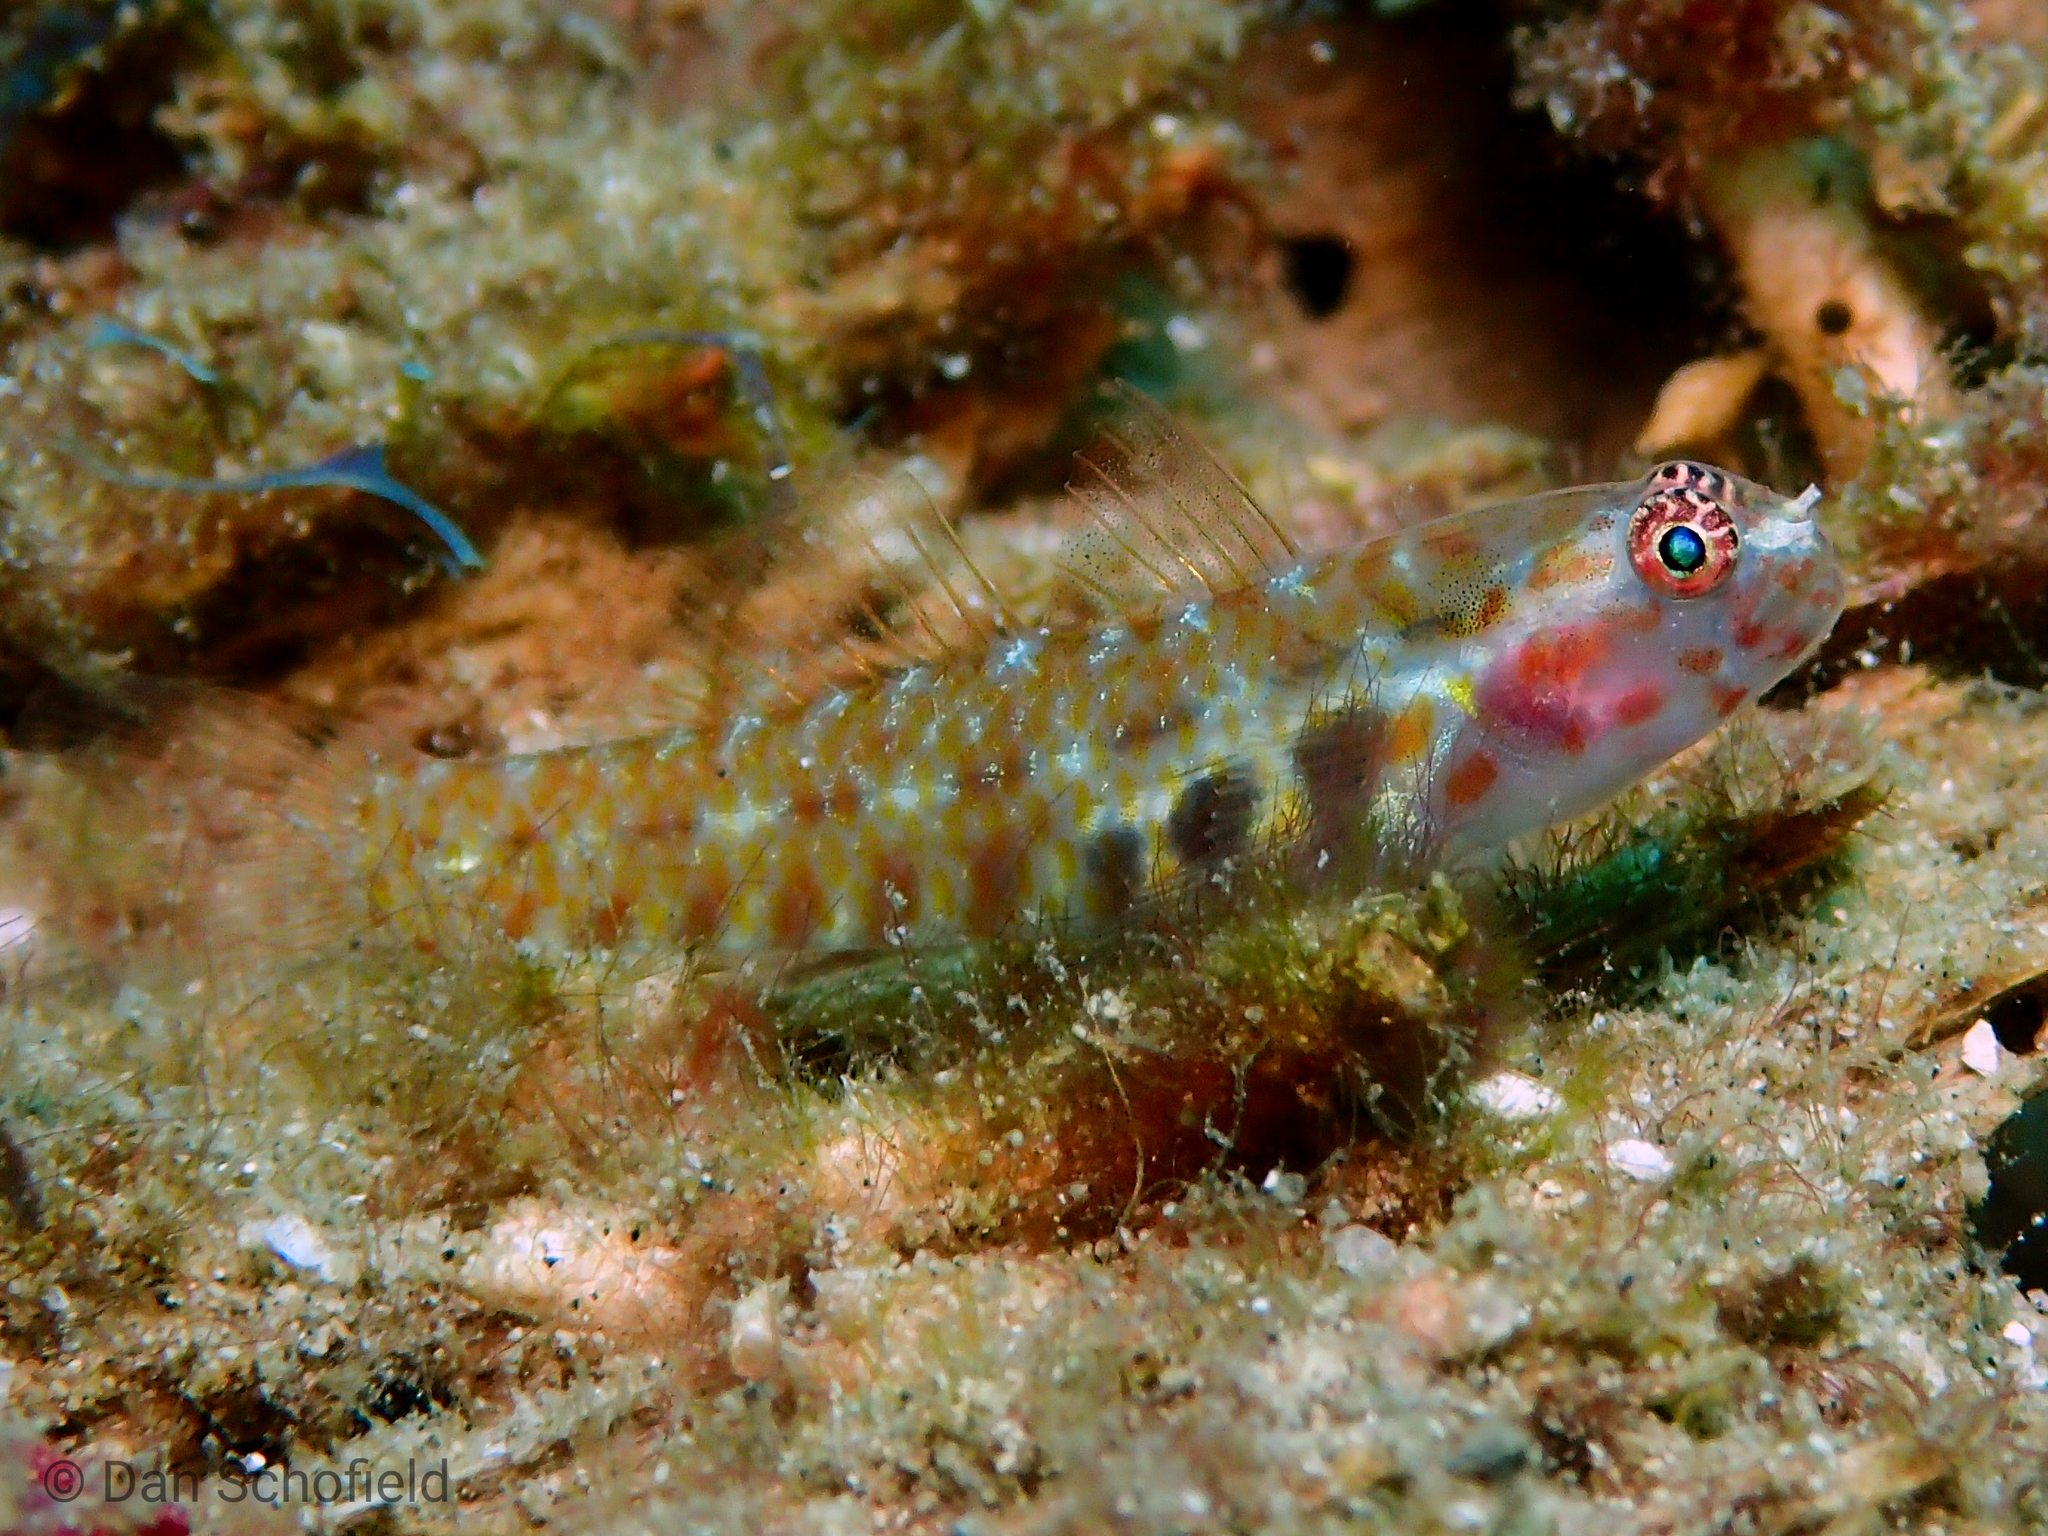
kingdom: Animalia
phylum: Chordata
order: Perciformes
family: Gobiidae
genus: Eviota
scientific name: Eviota pictifacies
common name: Paintedface dwarfgoby
